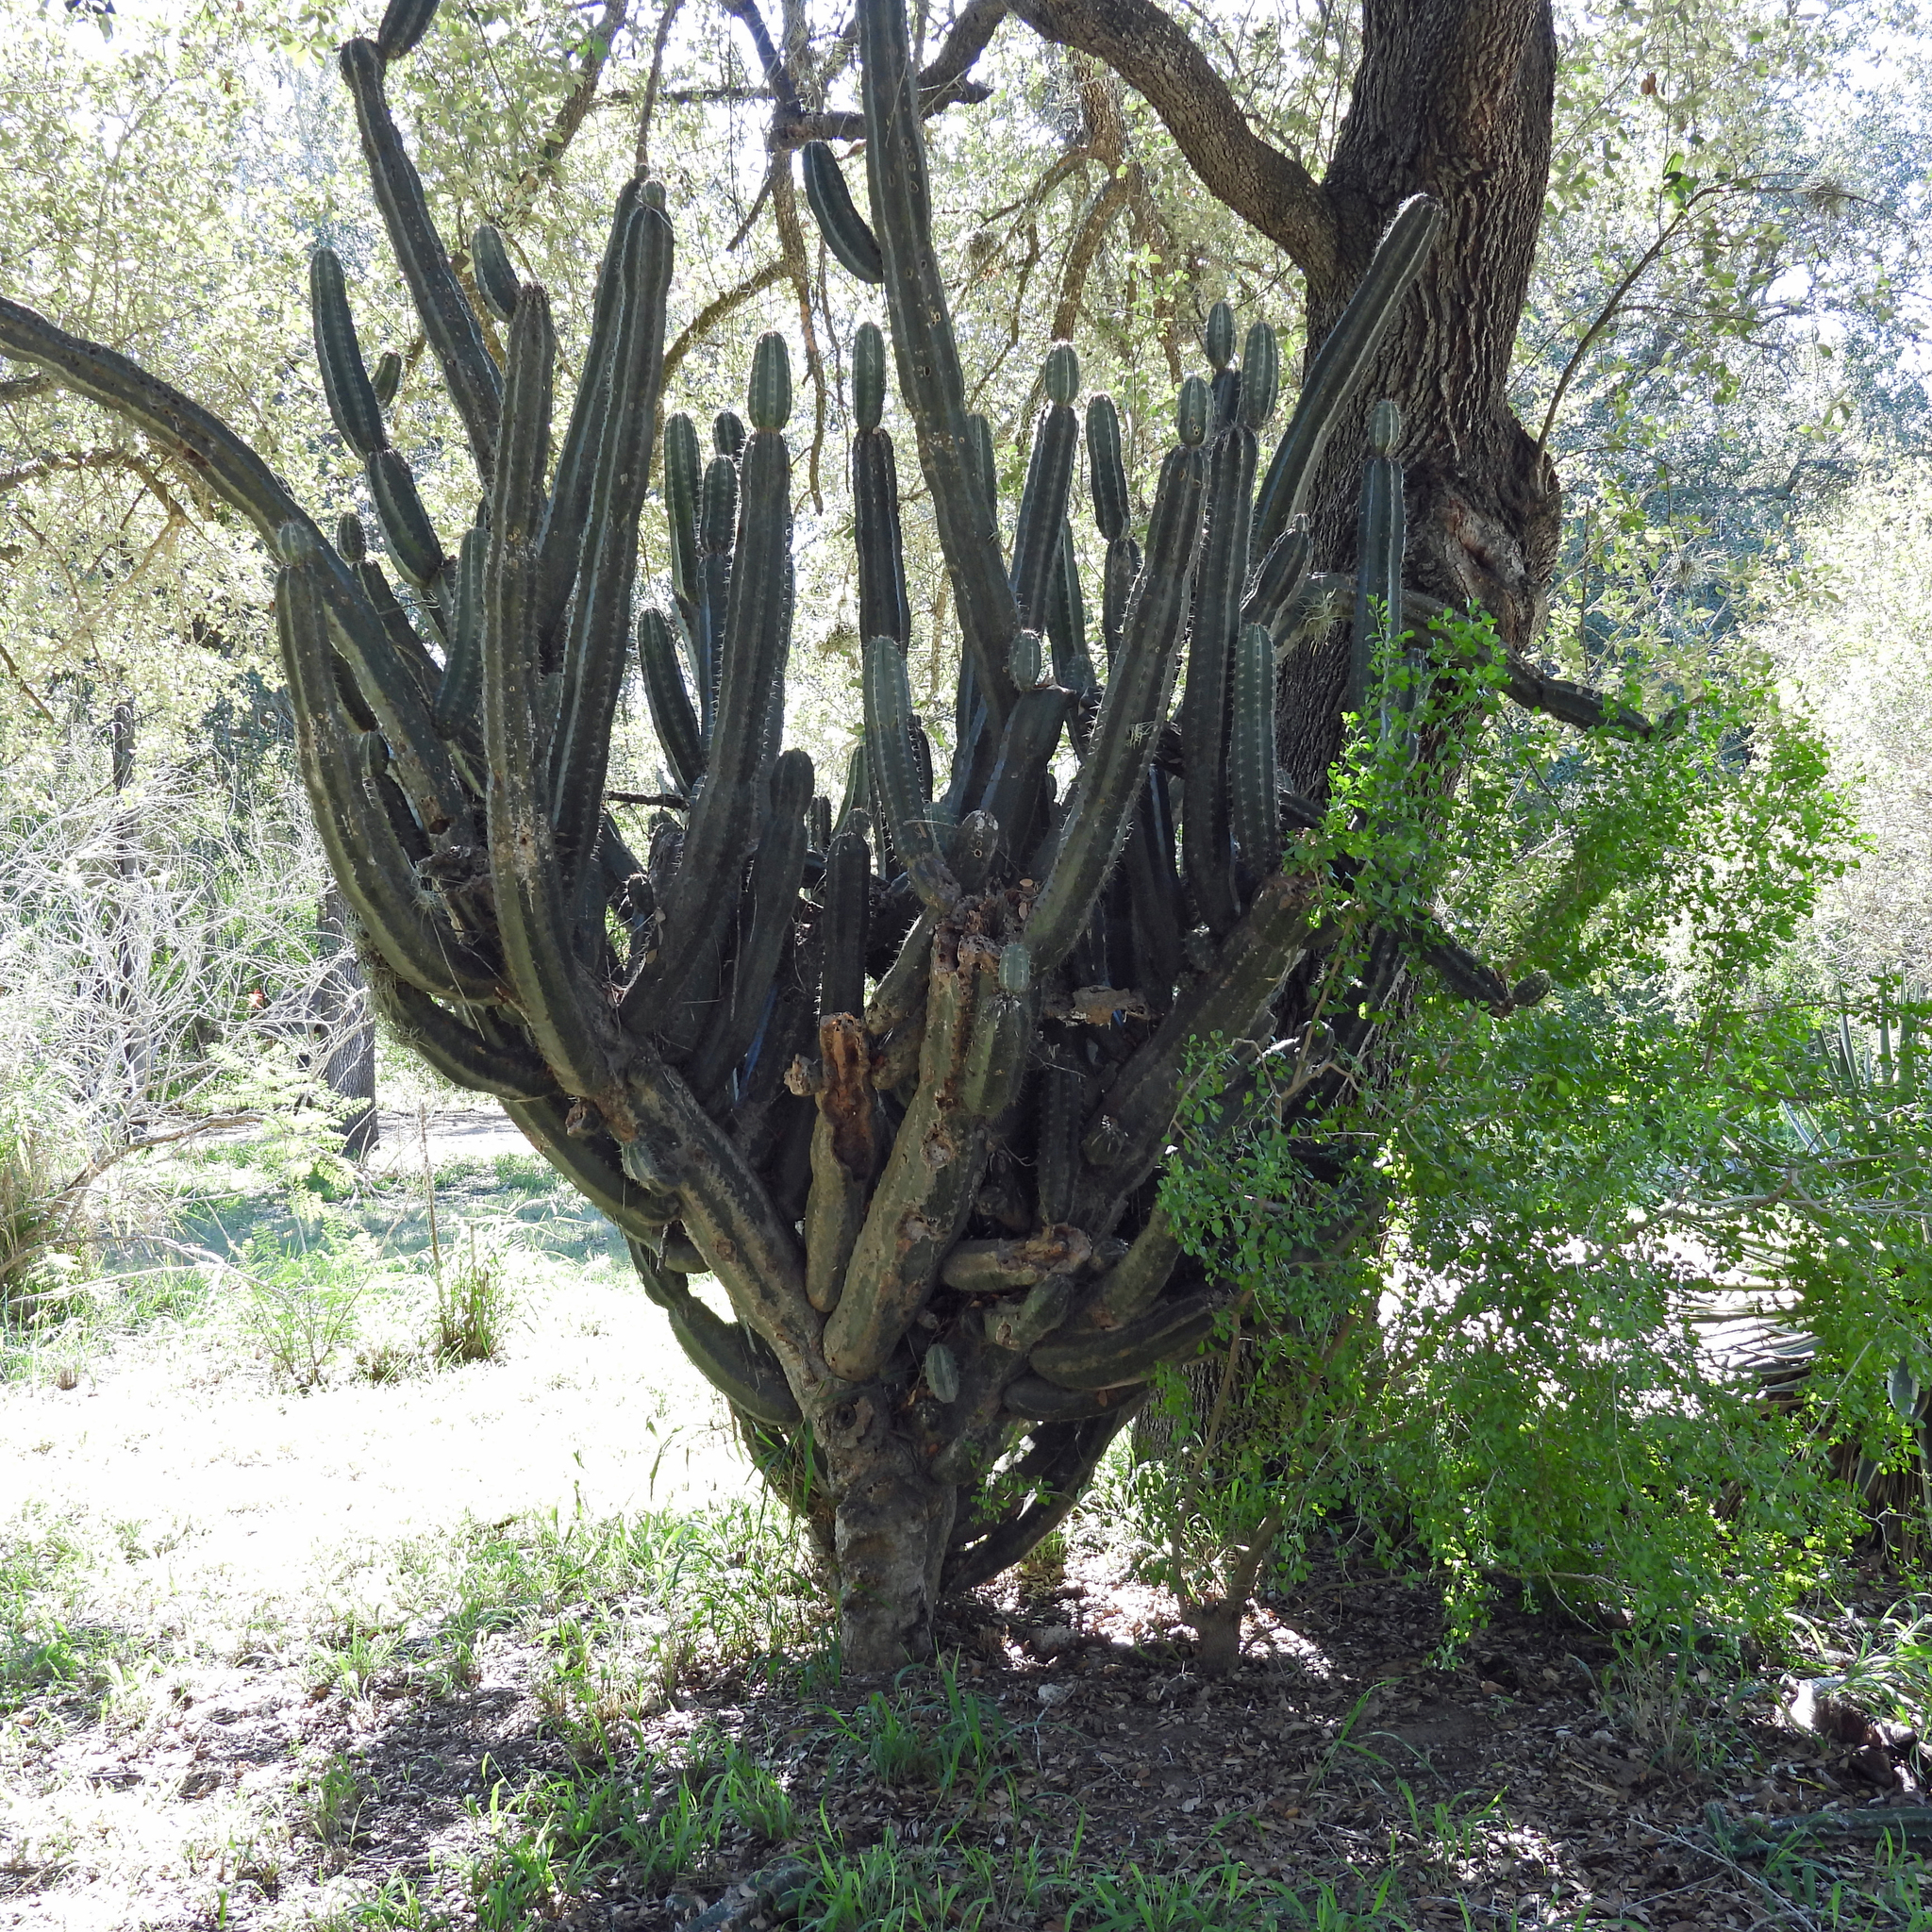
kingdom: Plantae
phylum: Tracheophyta
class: Magnoliopsida
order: Caryophyllales
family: Cactaceae
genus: Stenocereus
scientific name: Stenocereus huastecorum
